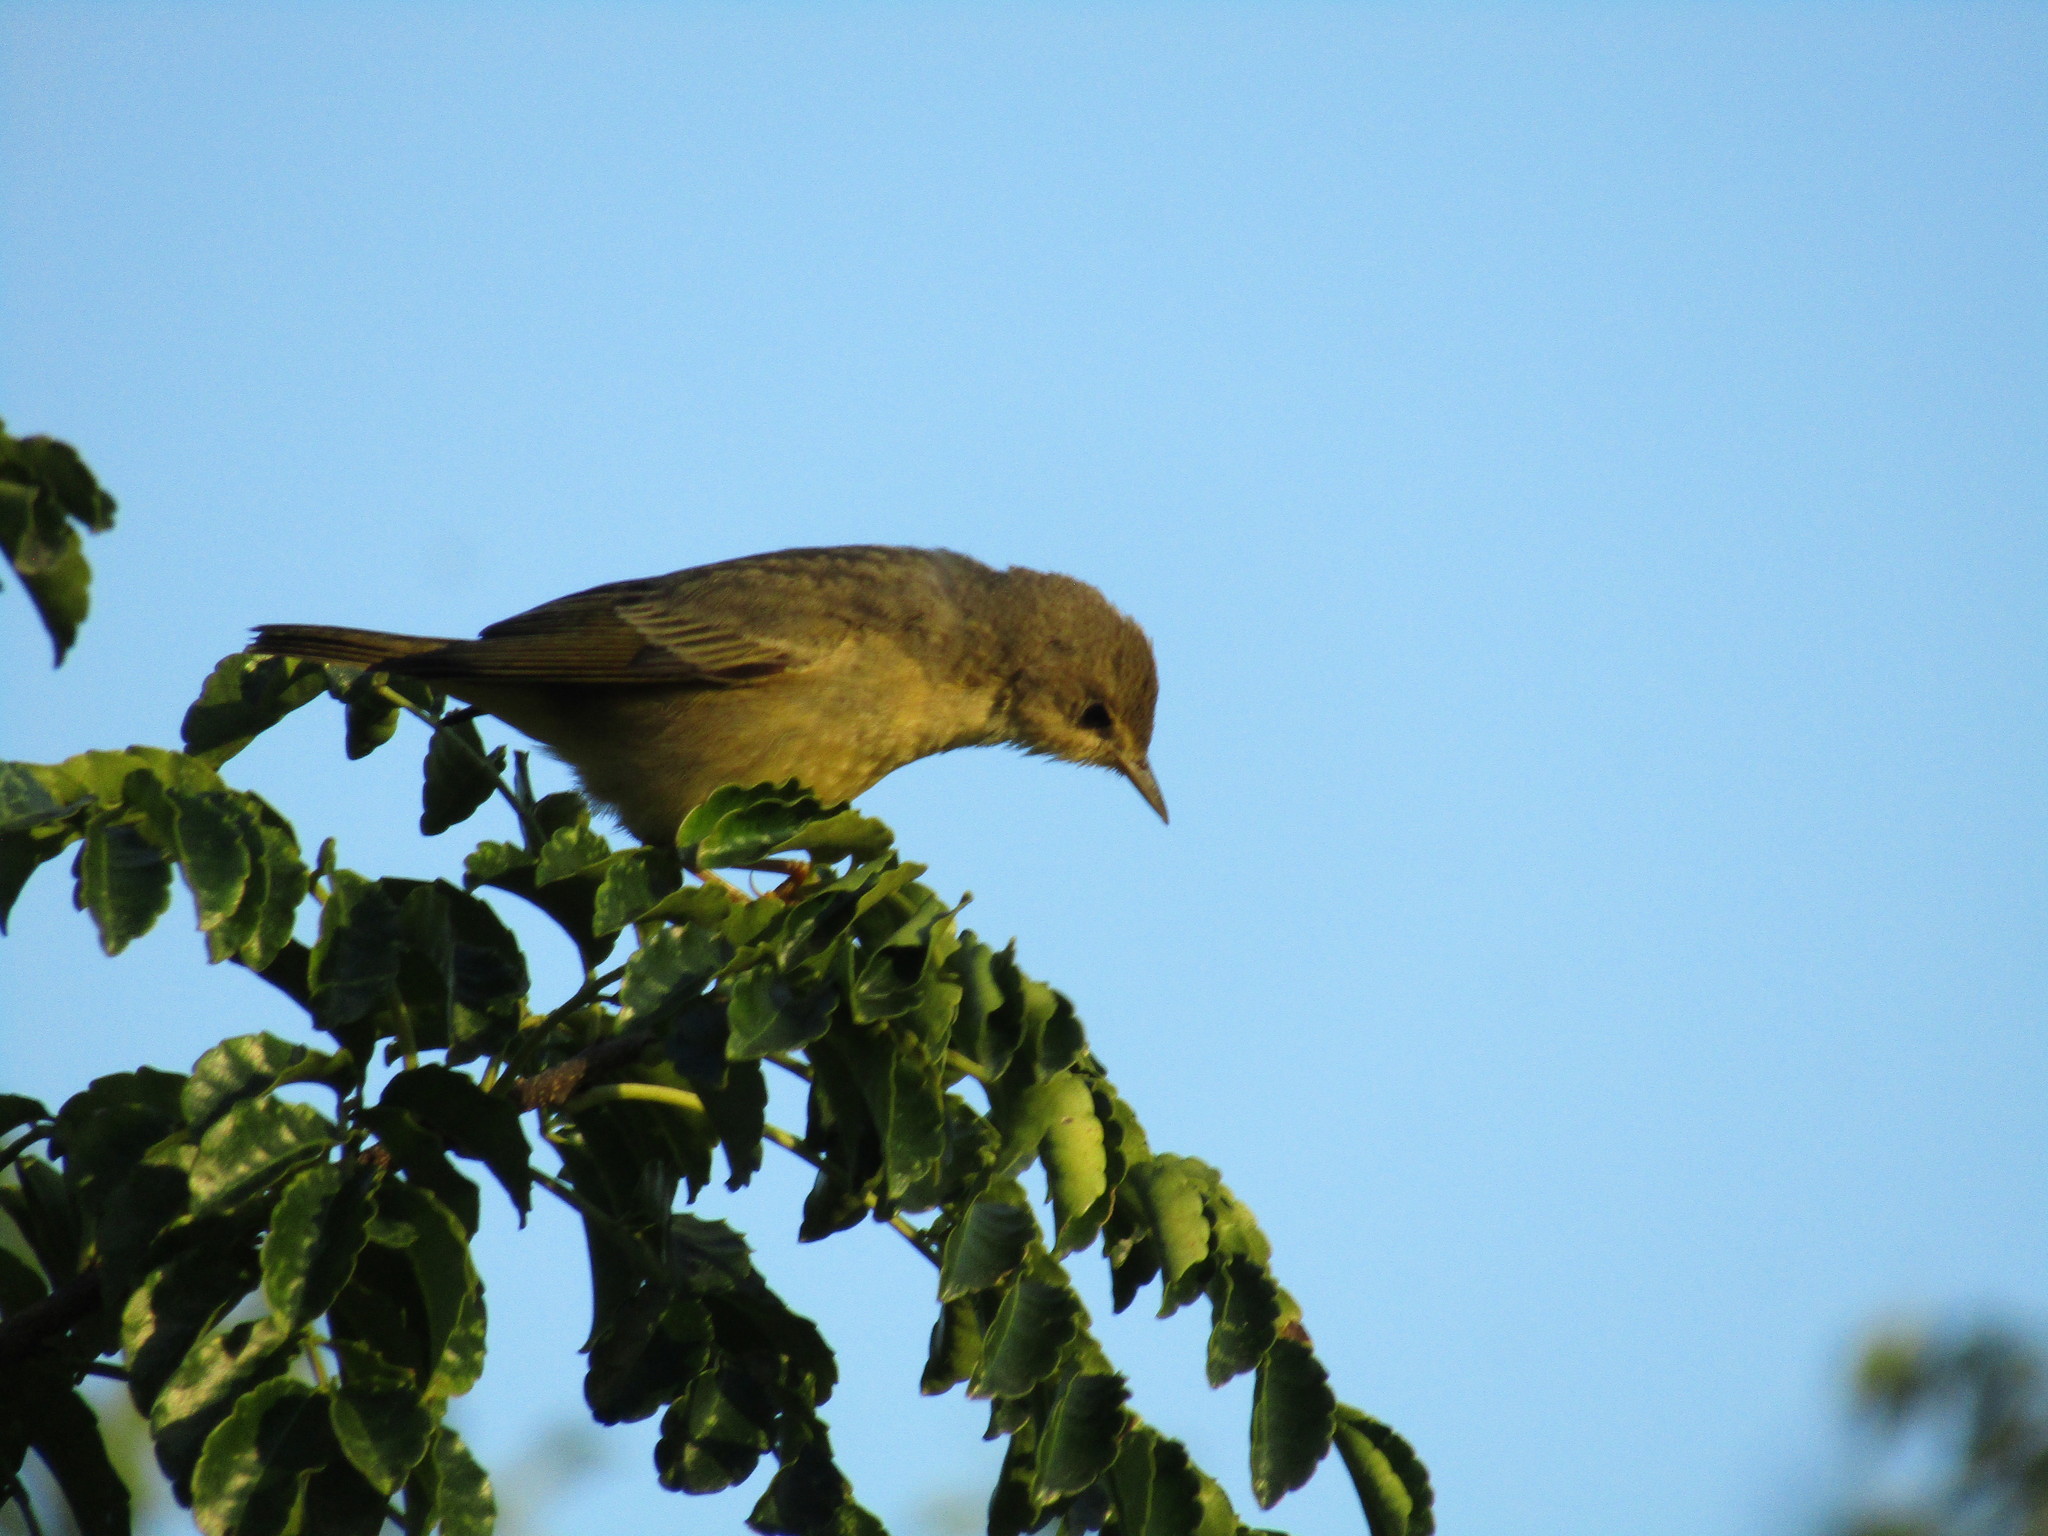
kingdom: Animalia
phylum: Chordata
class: Aves
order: Passeriformes
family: Parulidae
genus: Setophaga
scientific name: Setophaga petechia
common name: Yellow warbler
